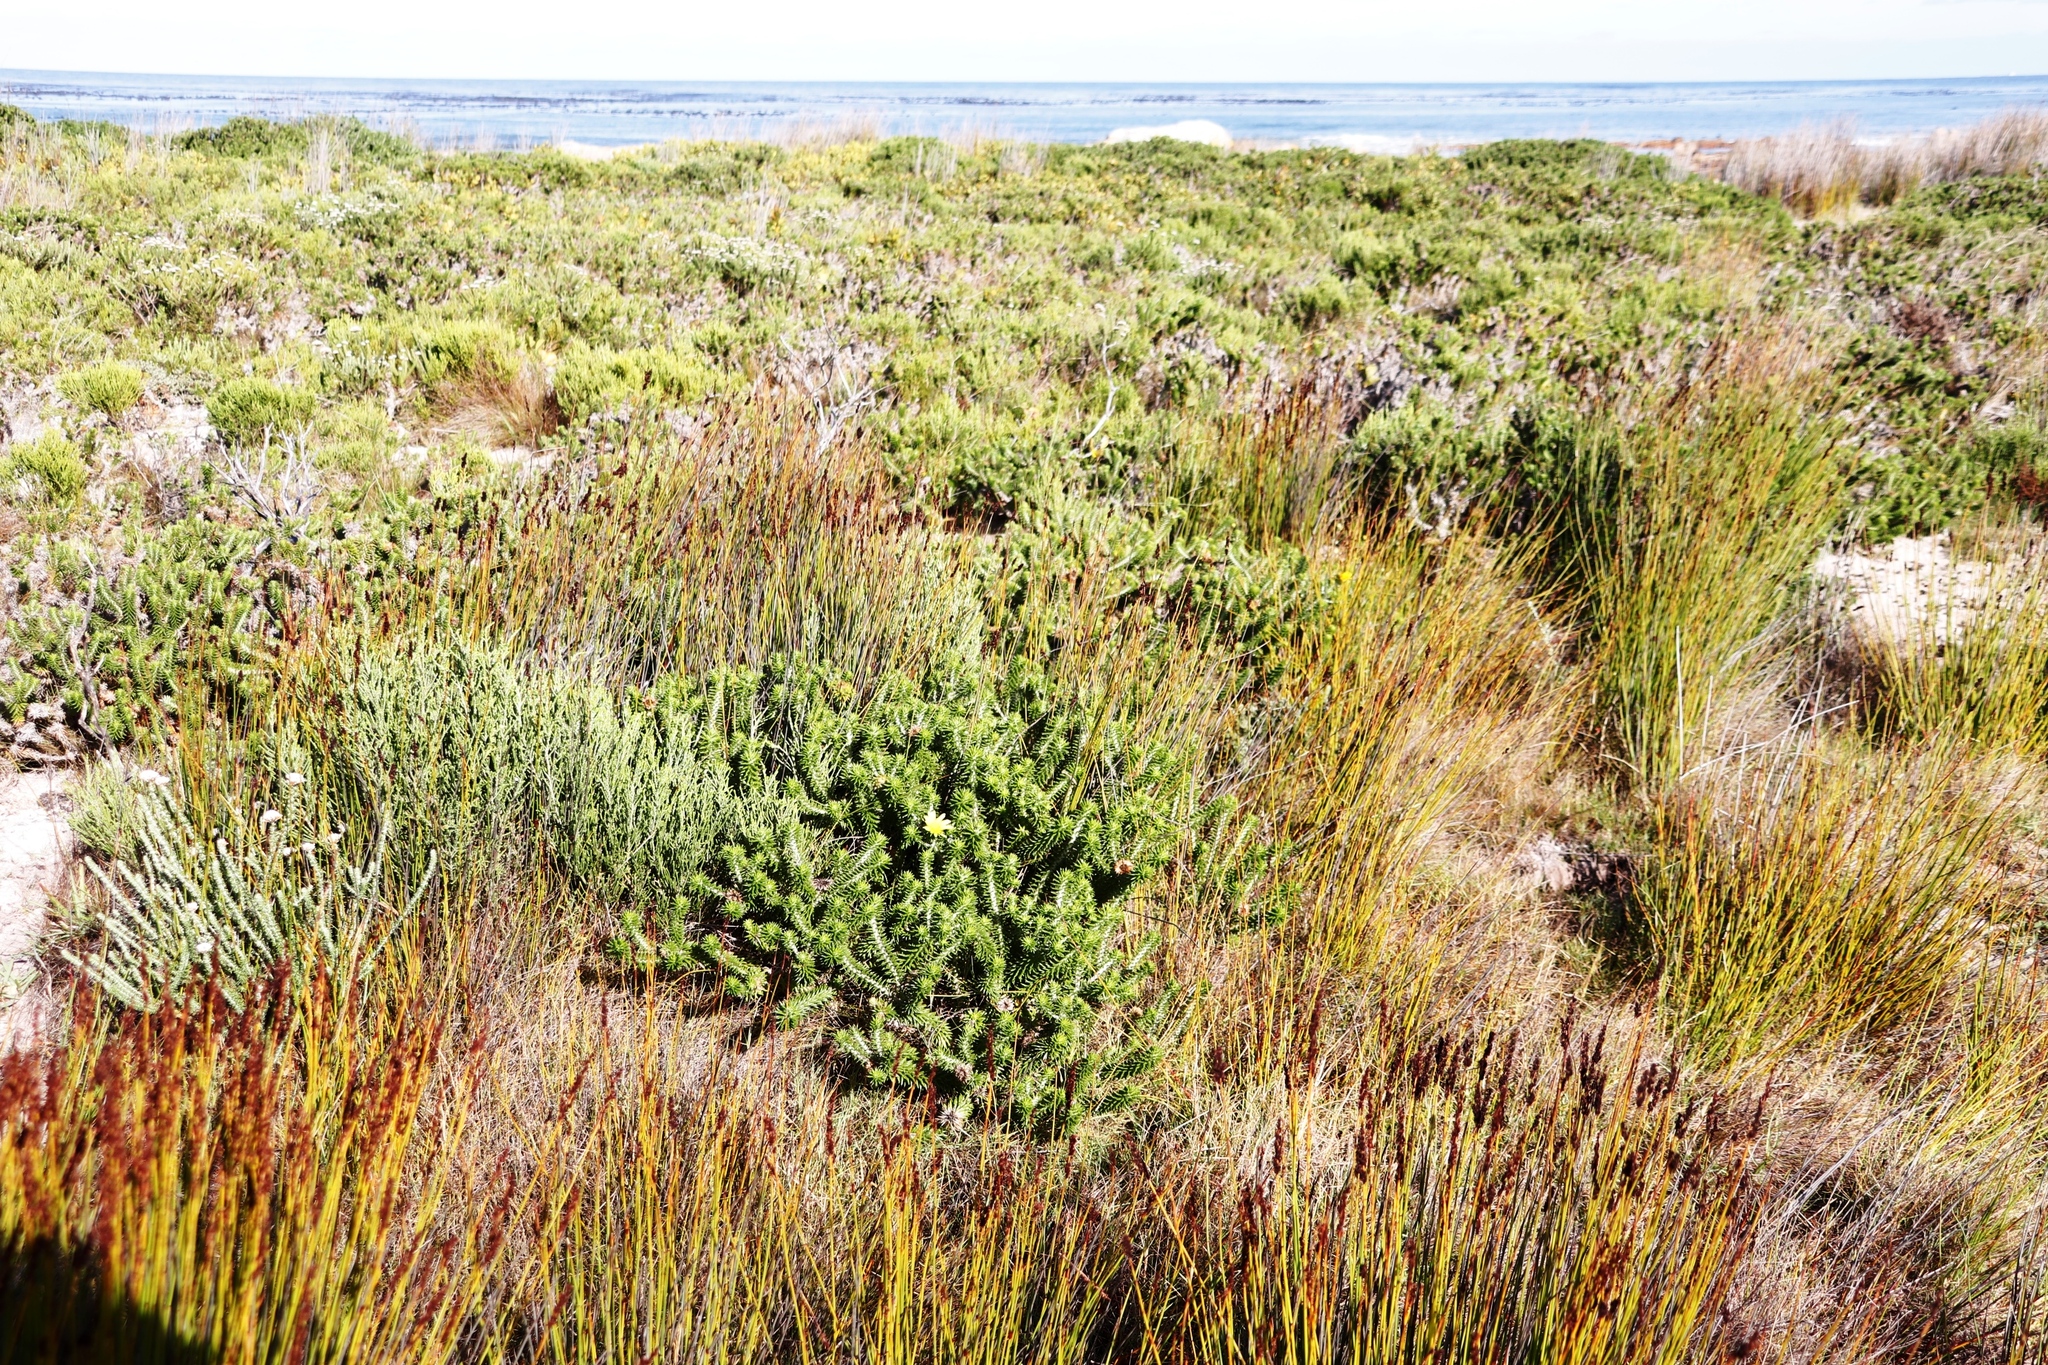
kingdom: Plantae
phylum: Tracheophyta
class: Magnoliopsida
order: Asterales
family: Asteraceae
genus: Cullumia
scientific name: Cullumia squarrosa
